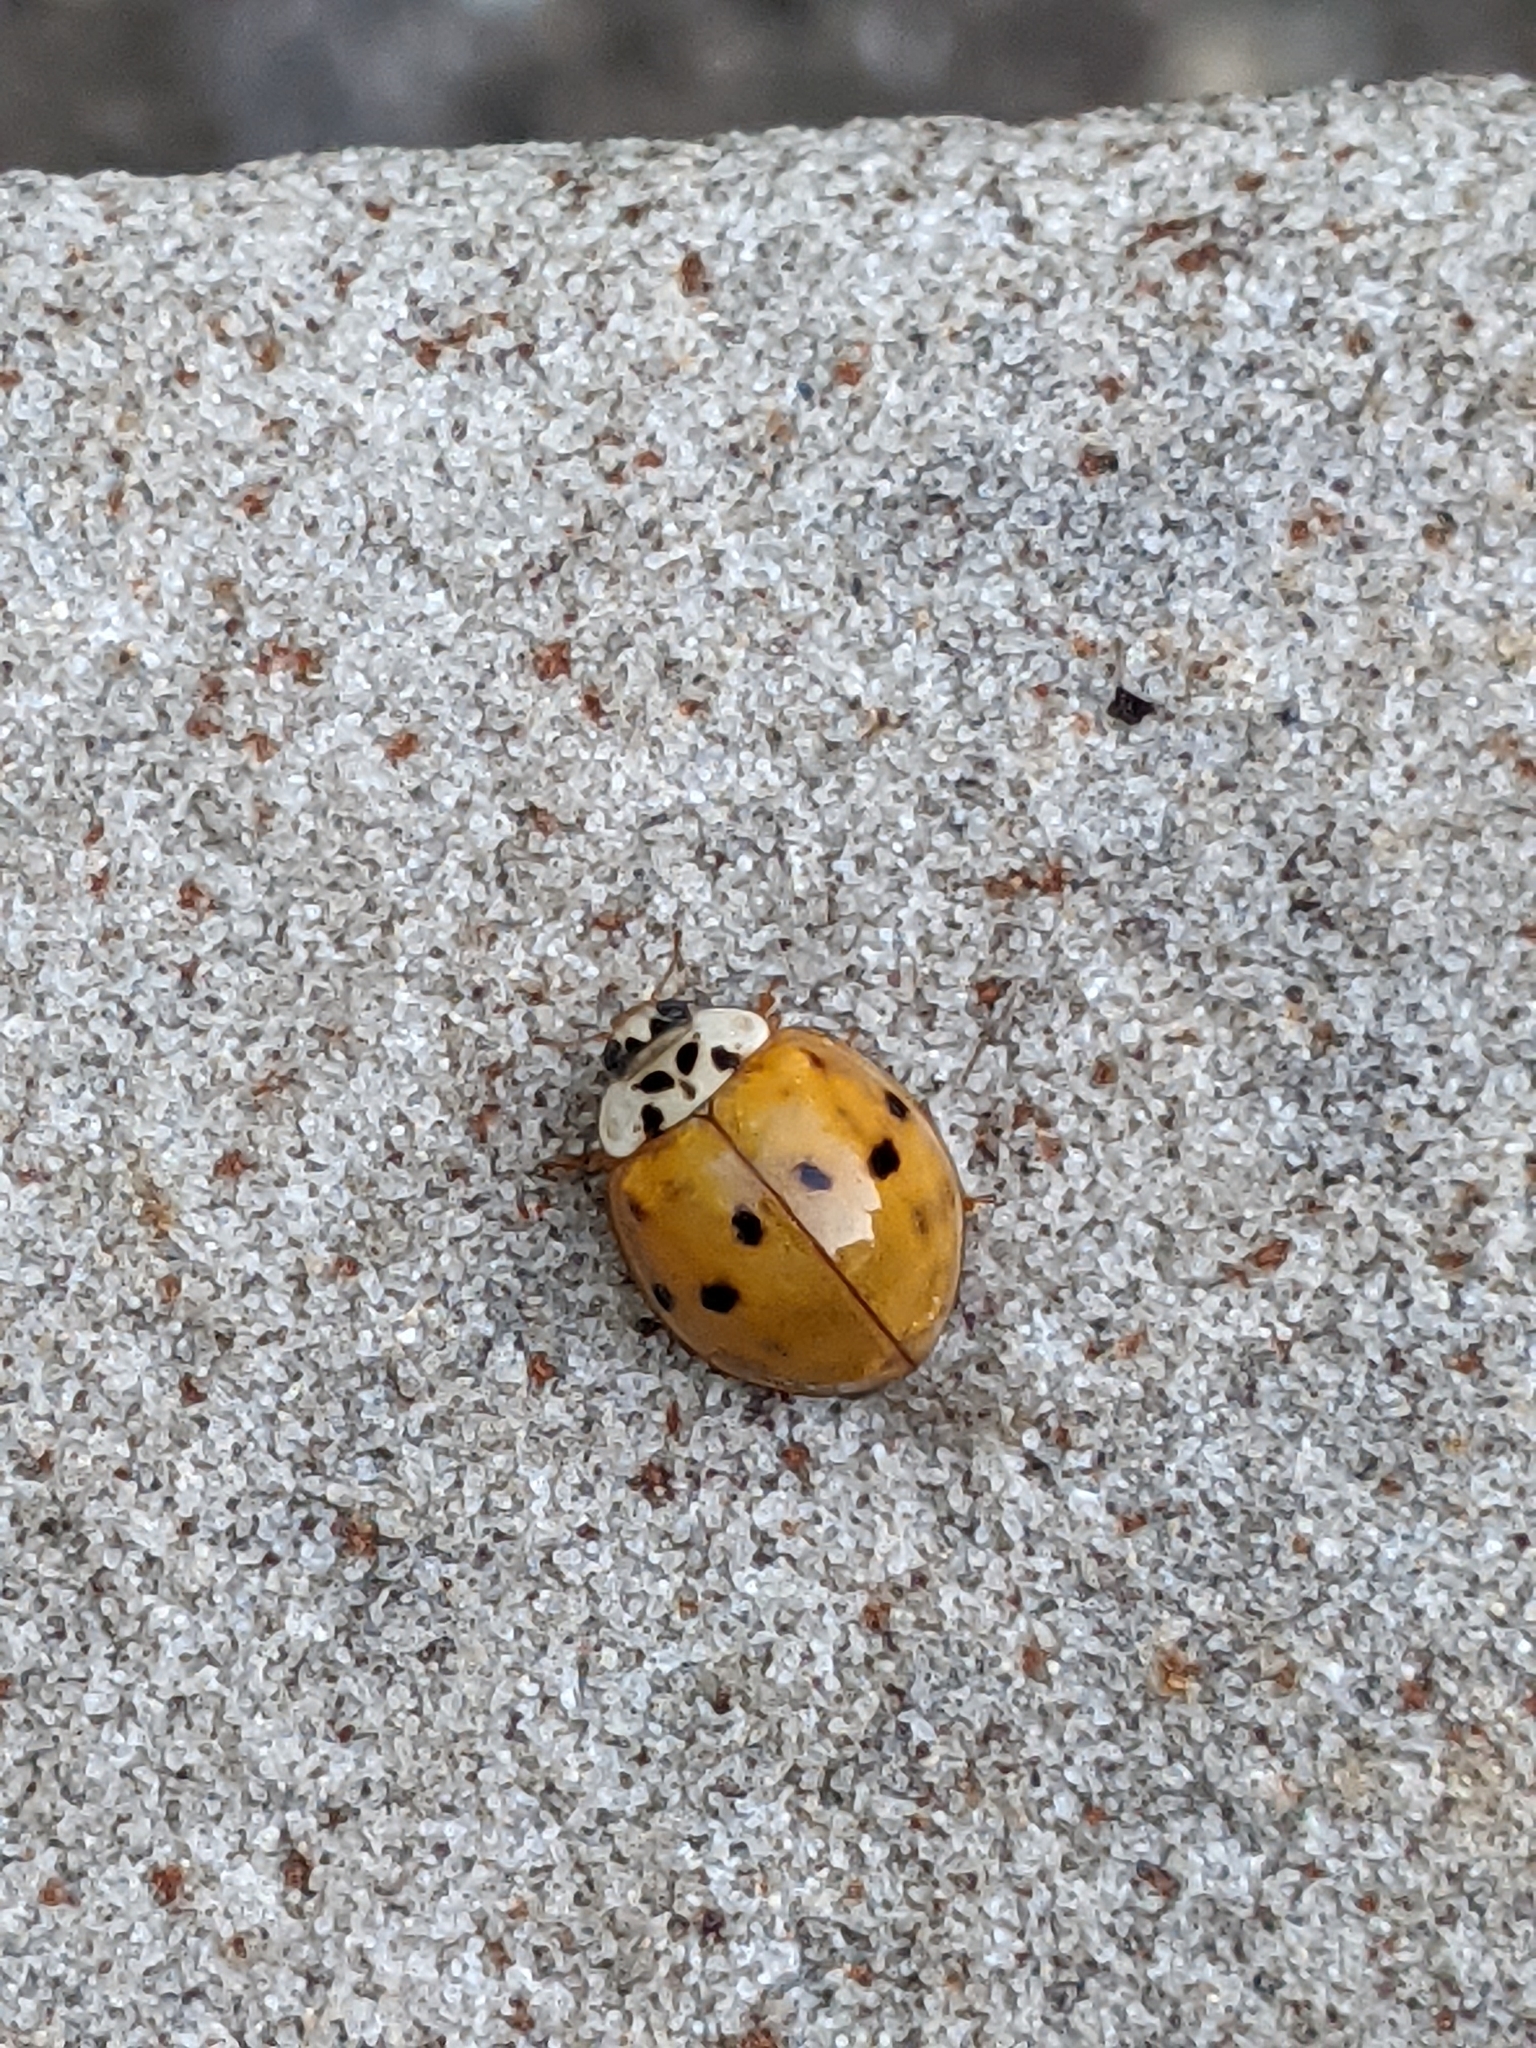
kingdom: Animalia
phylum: Arthropoda
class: Insecta
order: Coleoptera
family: Coccinellidae
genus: Harmonia
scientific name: Harmonia axyridis
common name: Harlequin ladybird
